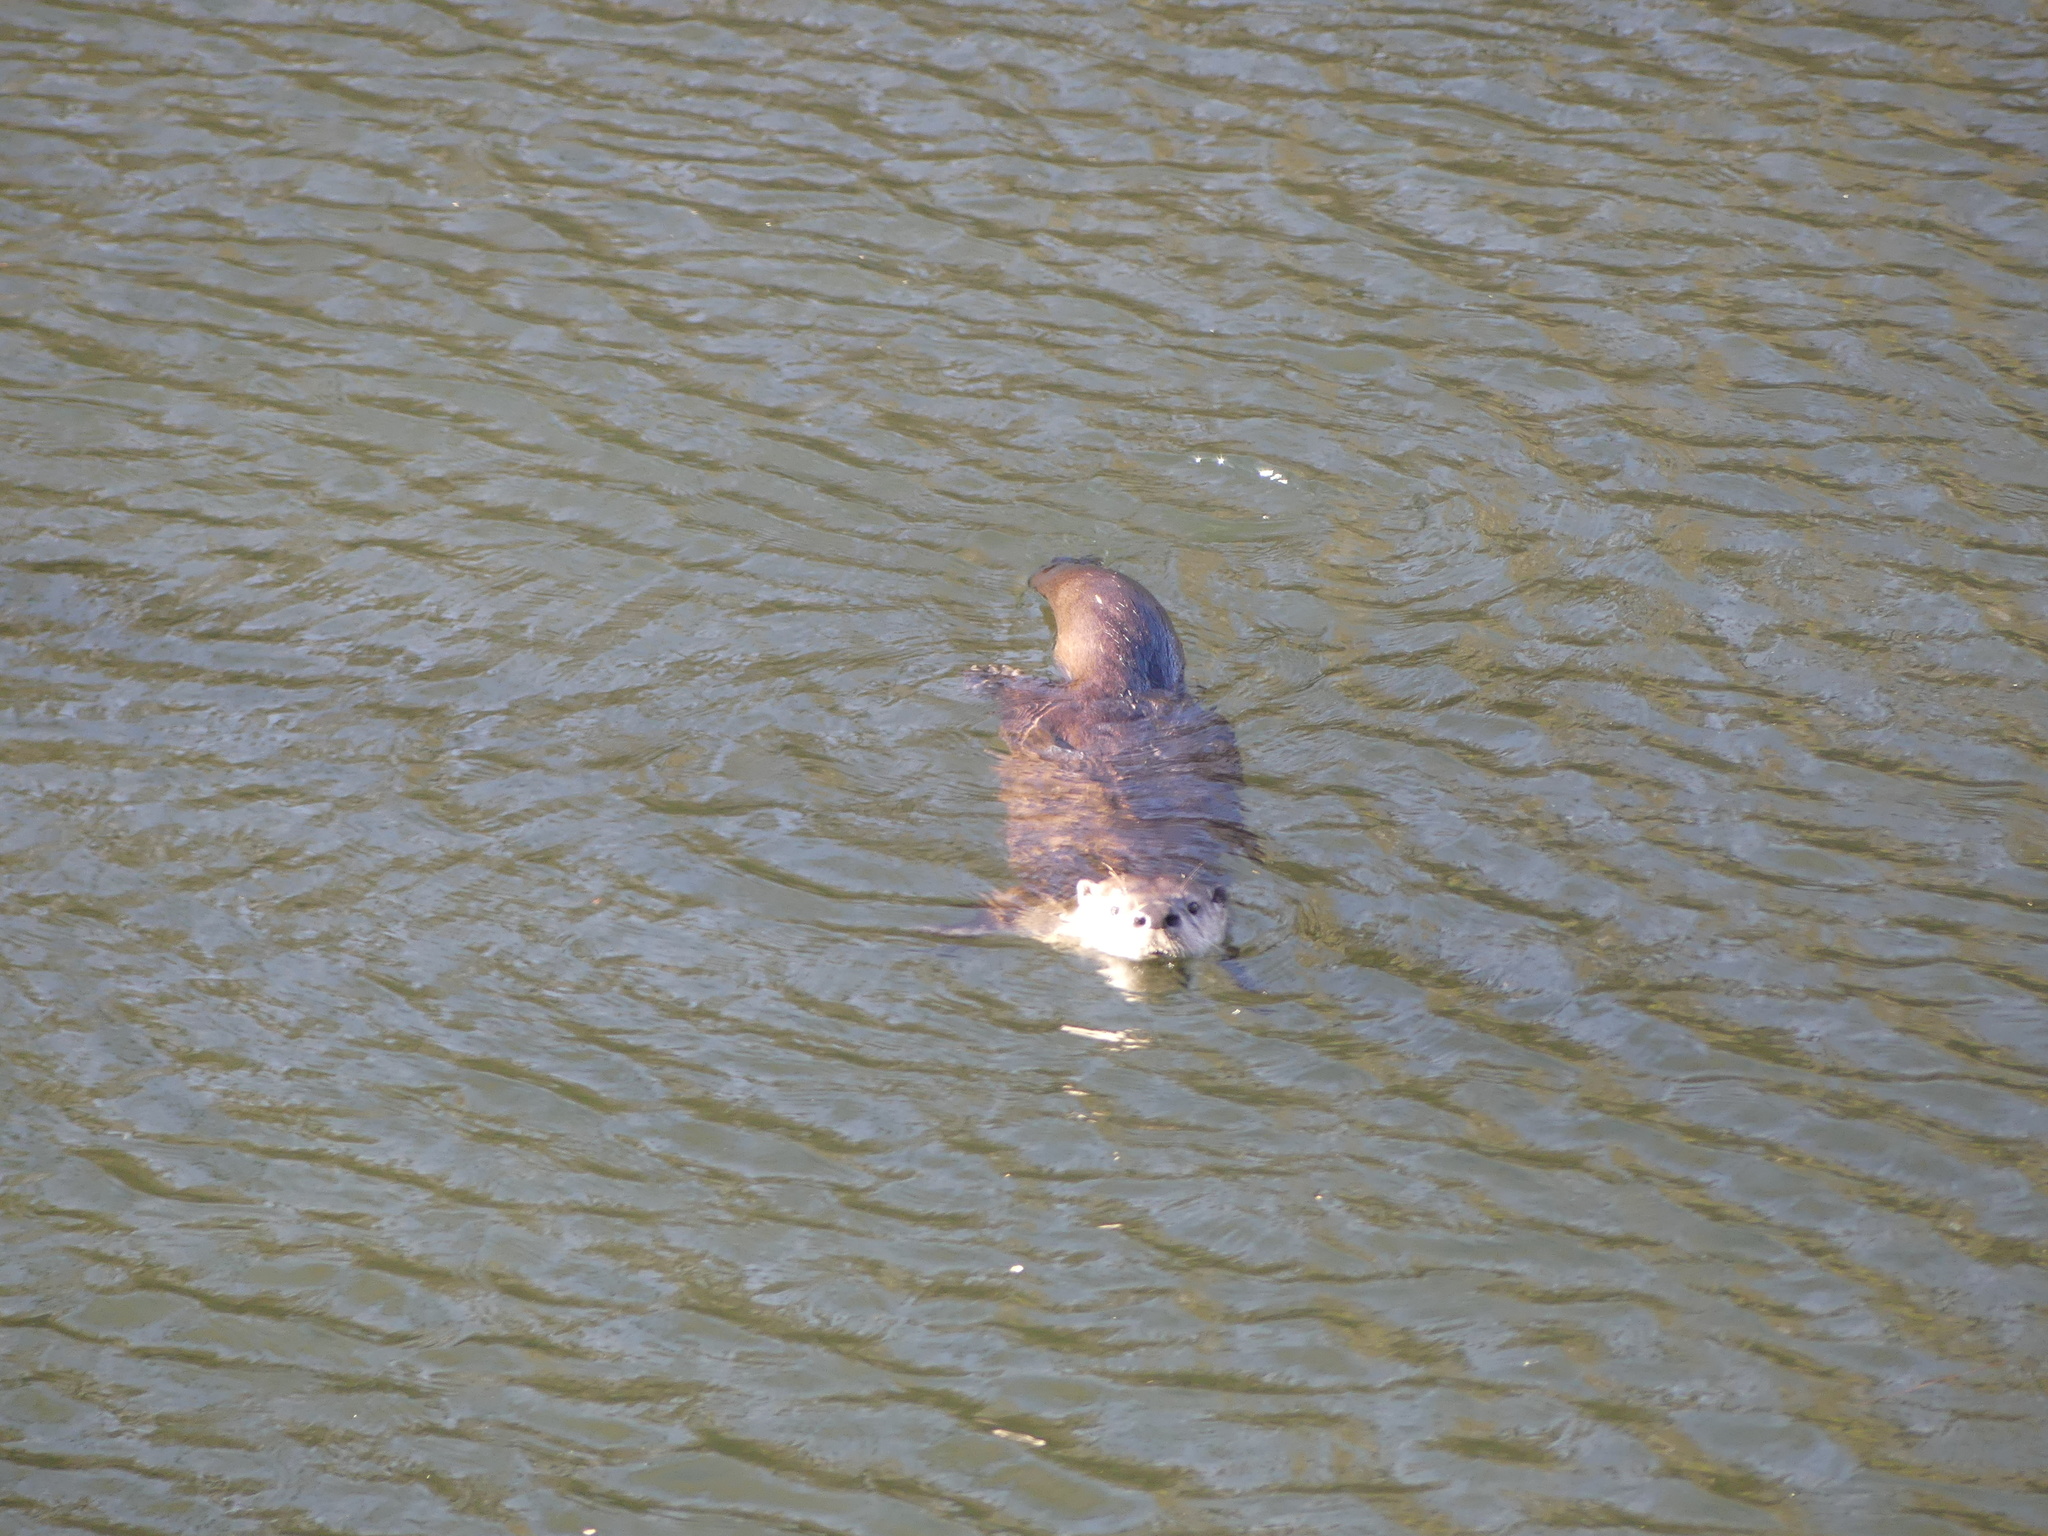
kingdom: Animalia
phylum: Chordata
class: Mammalia
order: Carnivora
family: Mustelidae
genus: Lontra
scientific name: Lontra canadensis
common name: North american river otter
